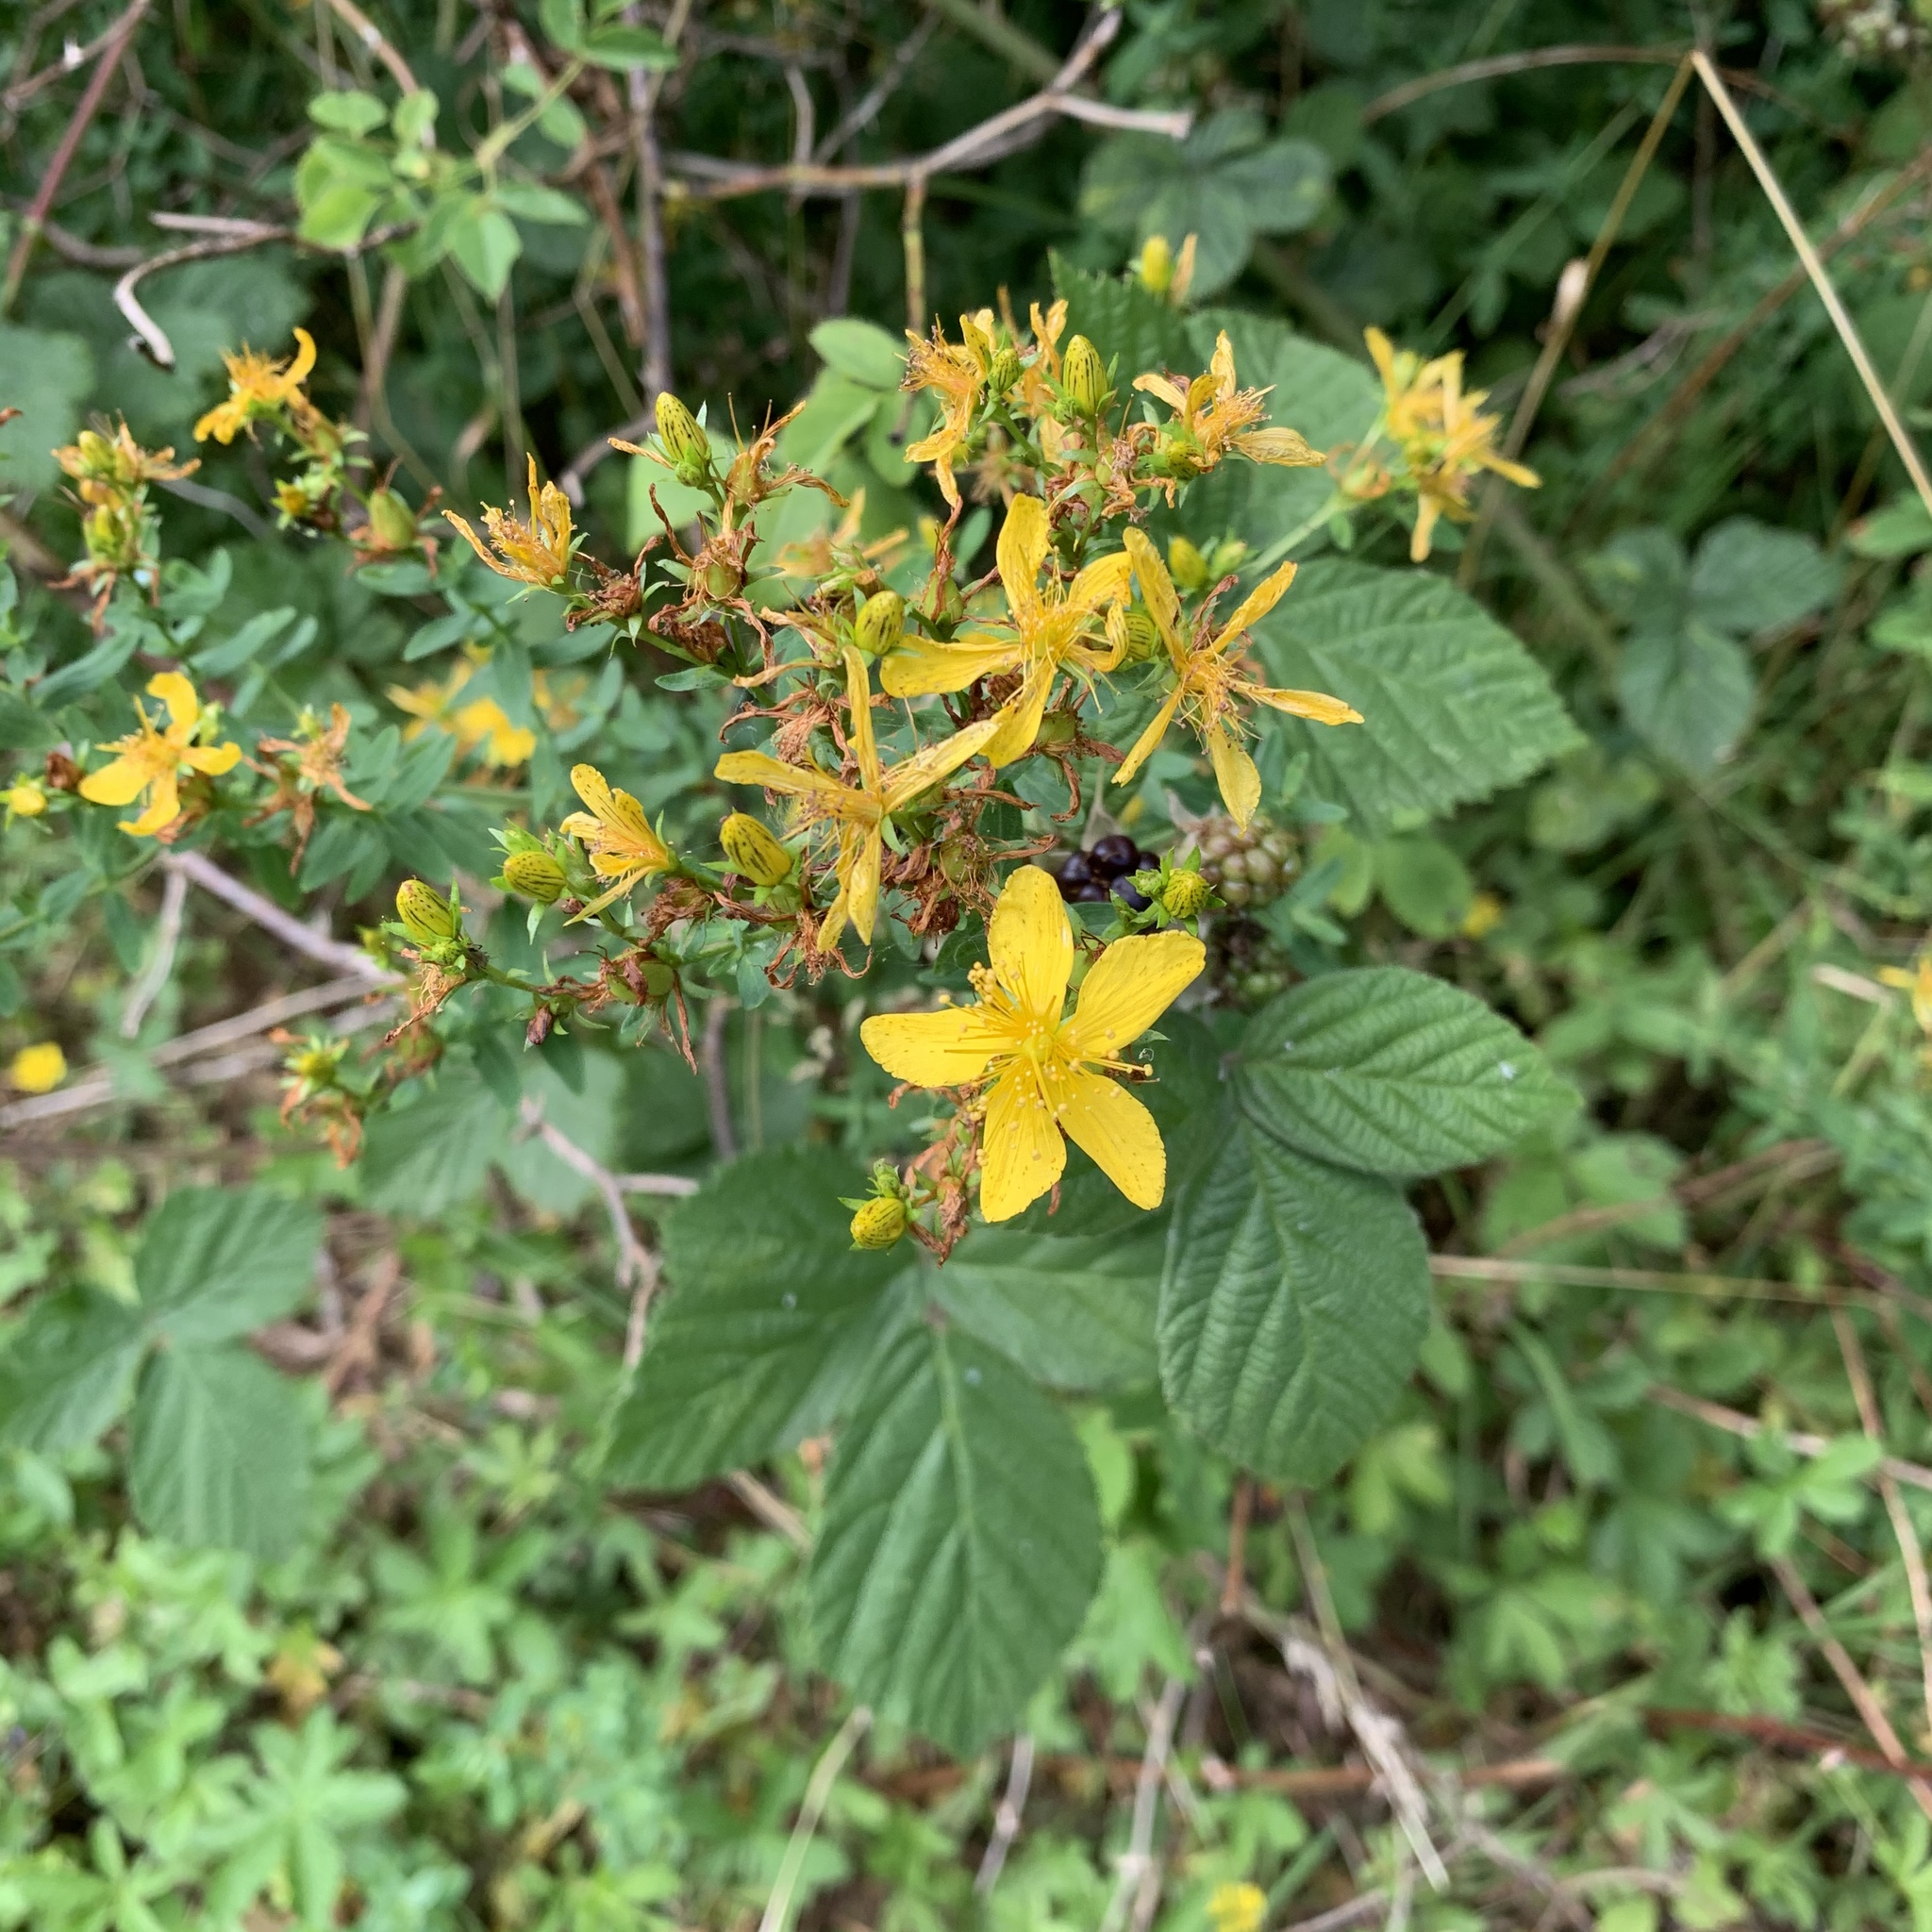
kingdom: Plantae
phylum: Tracheophyta
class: Magnoliopsida
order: Malpighiales
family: Hypericaceae
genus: Hypericum
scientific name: Hypericum perforatum
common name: Common st. johnswort
